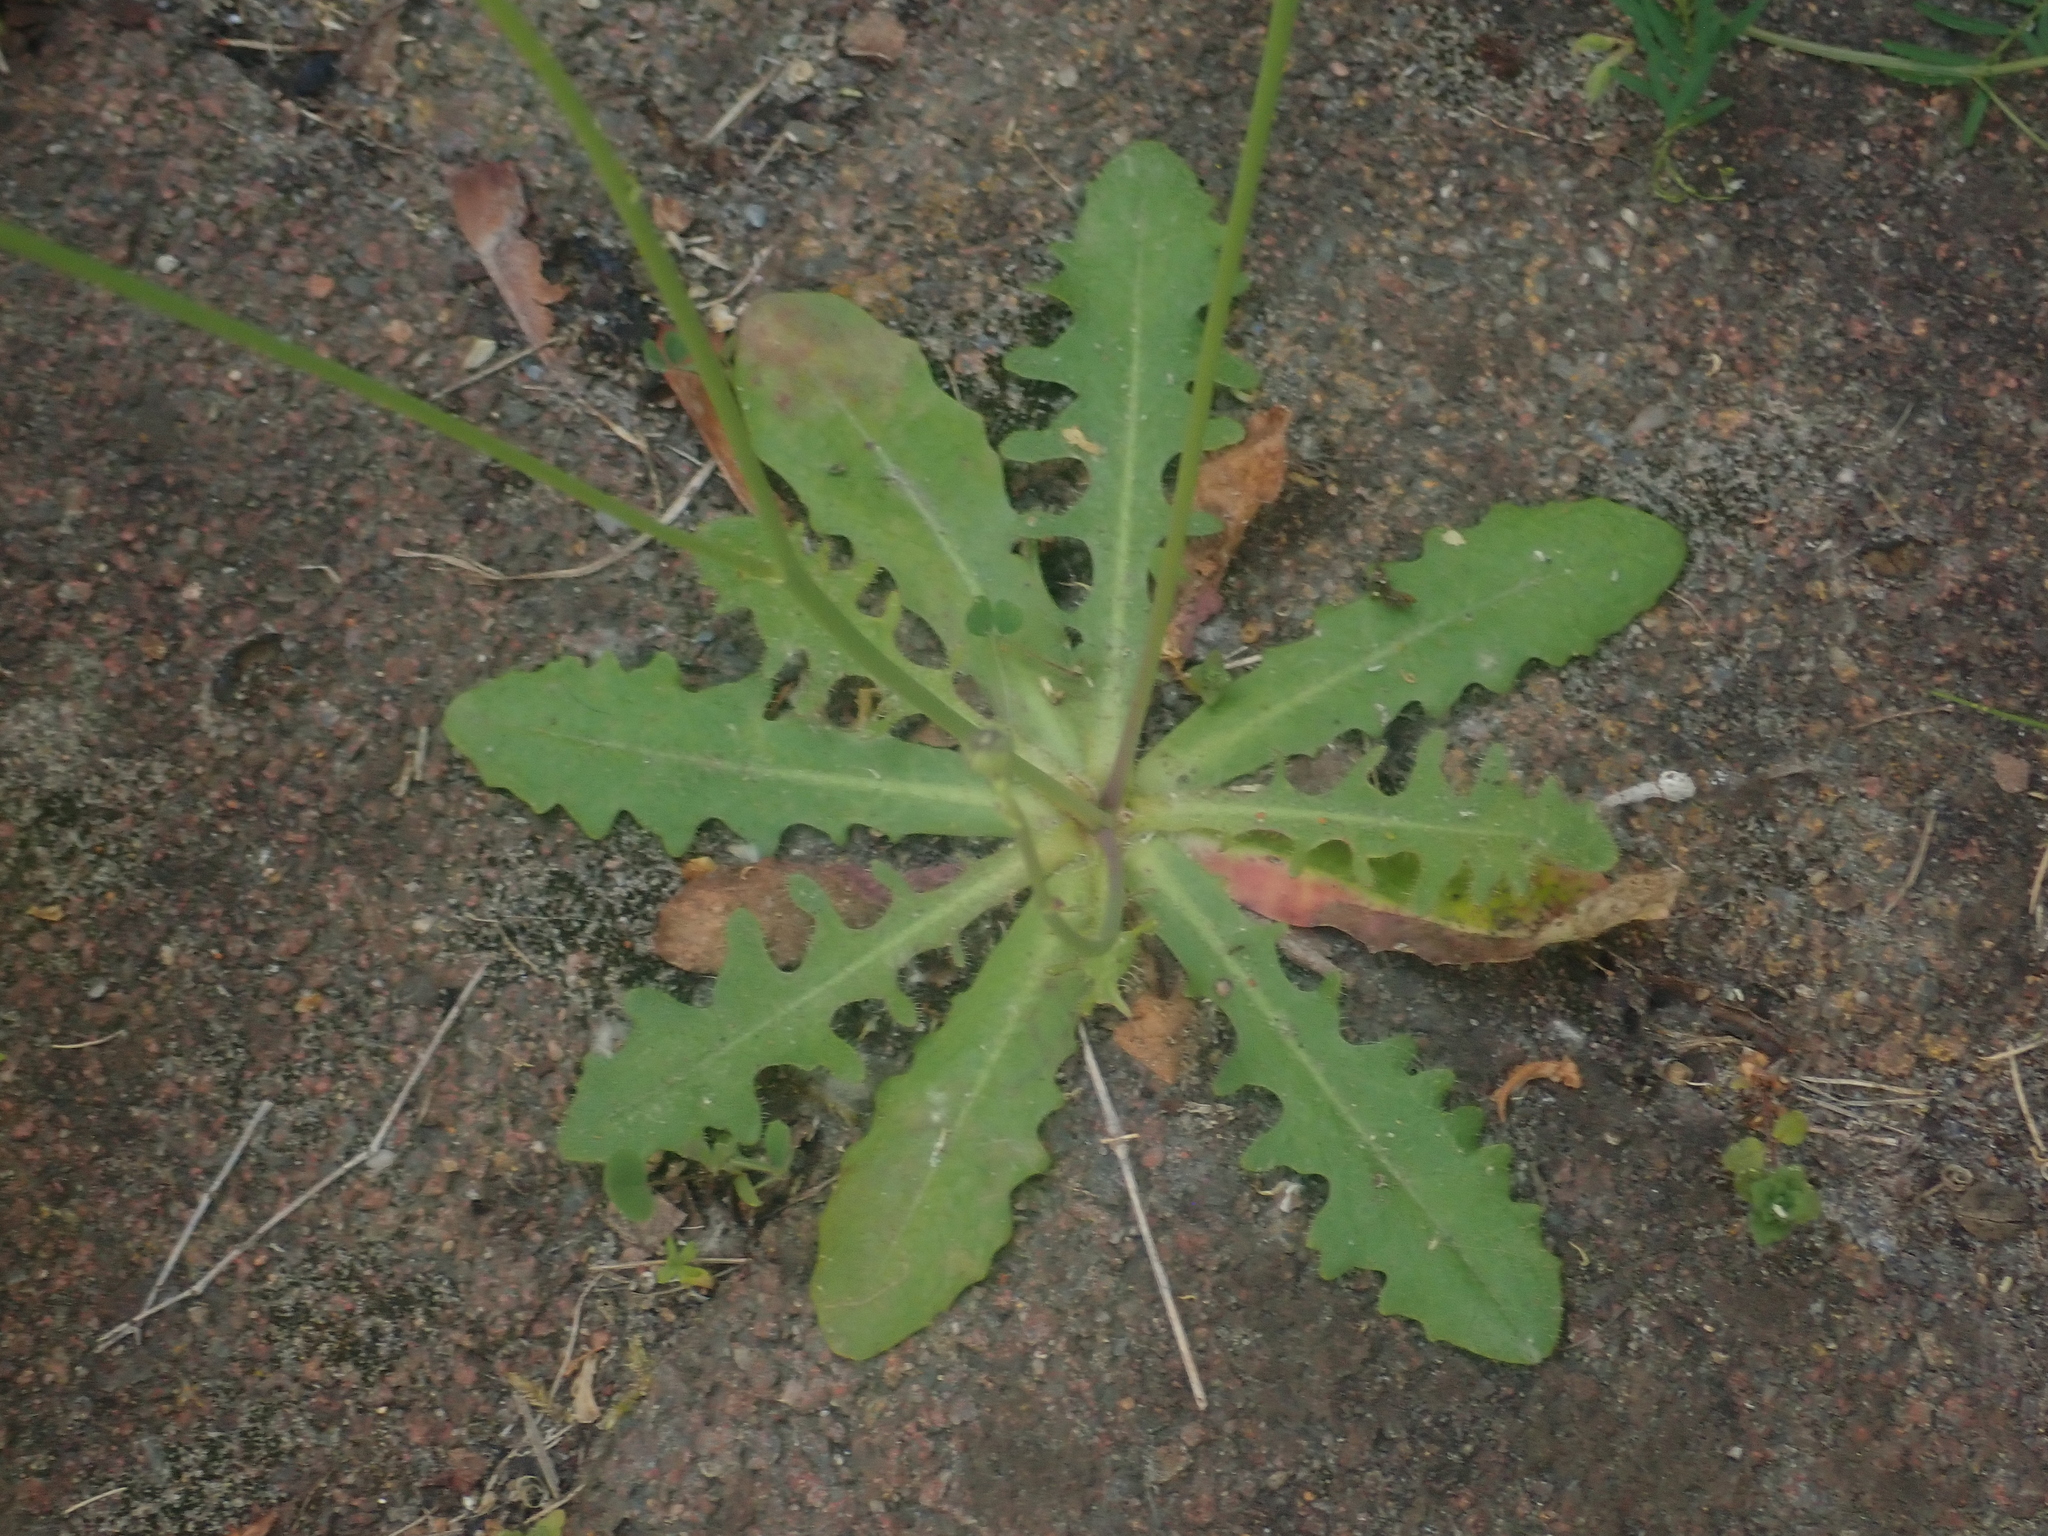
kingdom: Plantae
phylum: Tracheophyta
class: Magnoliopsida
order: Asterales
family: Asteraceae
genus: Hypochaeris
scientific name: Hypochaeris radicata
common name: Flatweed
